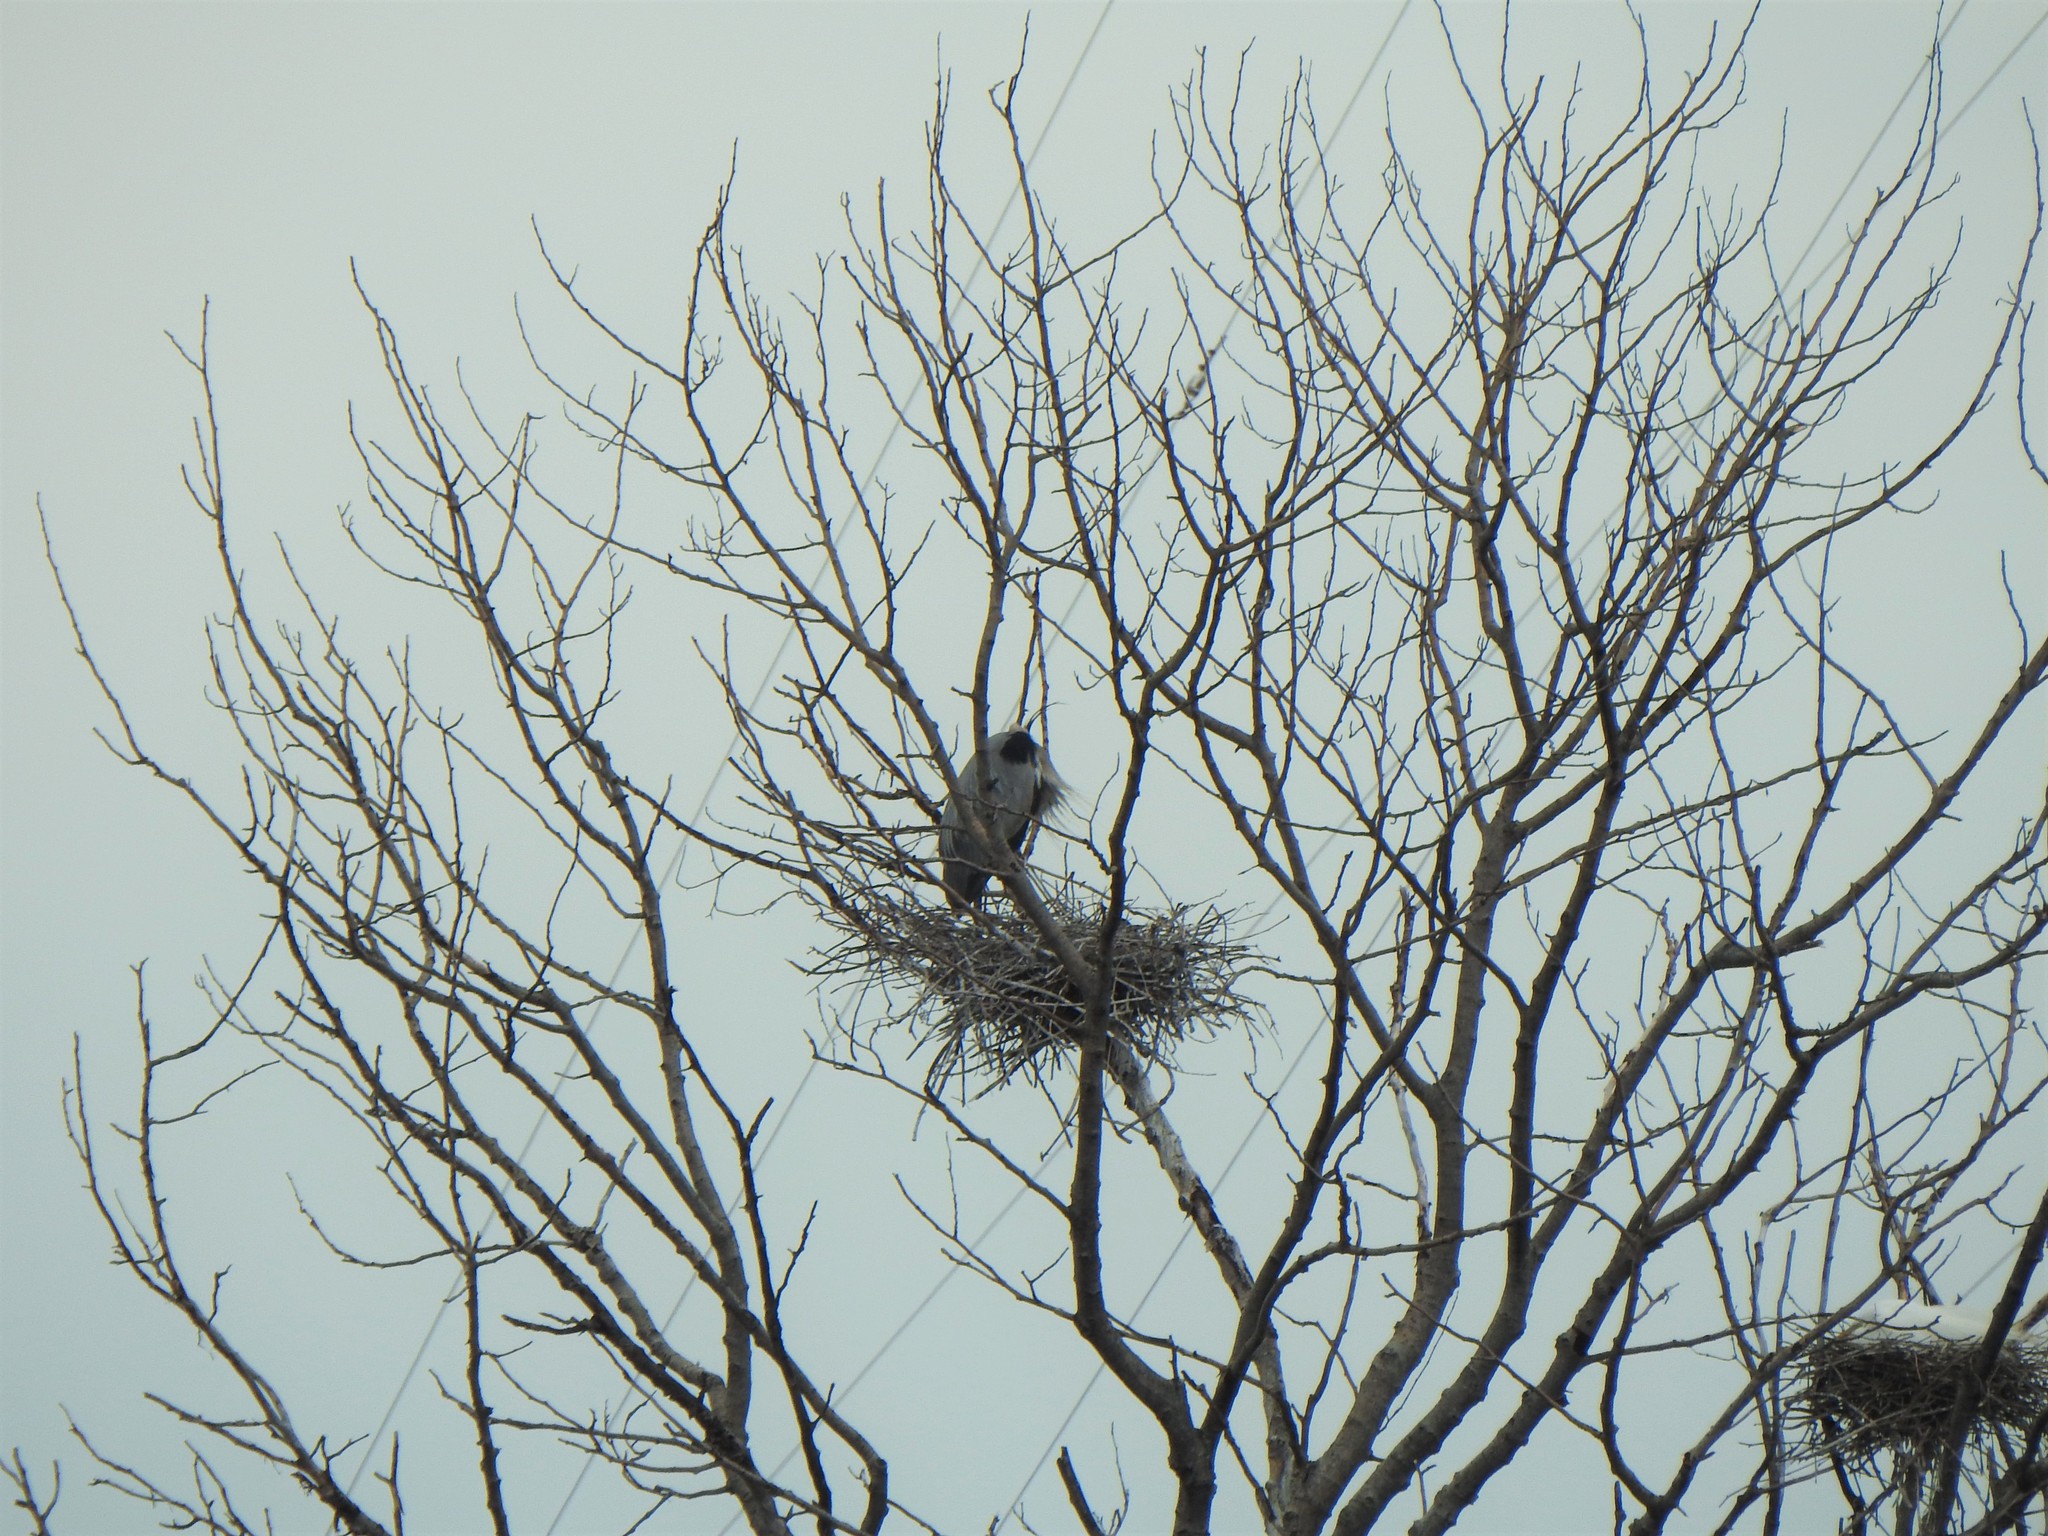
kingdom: Animalia
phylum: Chordata
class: Aves
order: Pelecaniformes
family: Ardeidae
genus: Ardea
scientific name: Ardea herodias
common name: Great blue heron
